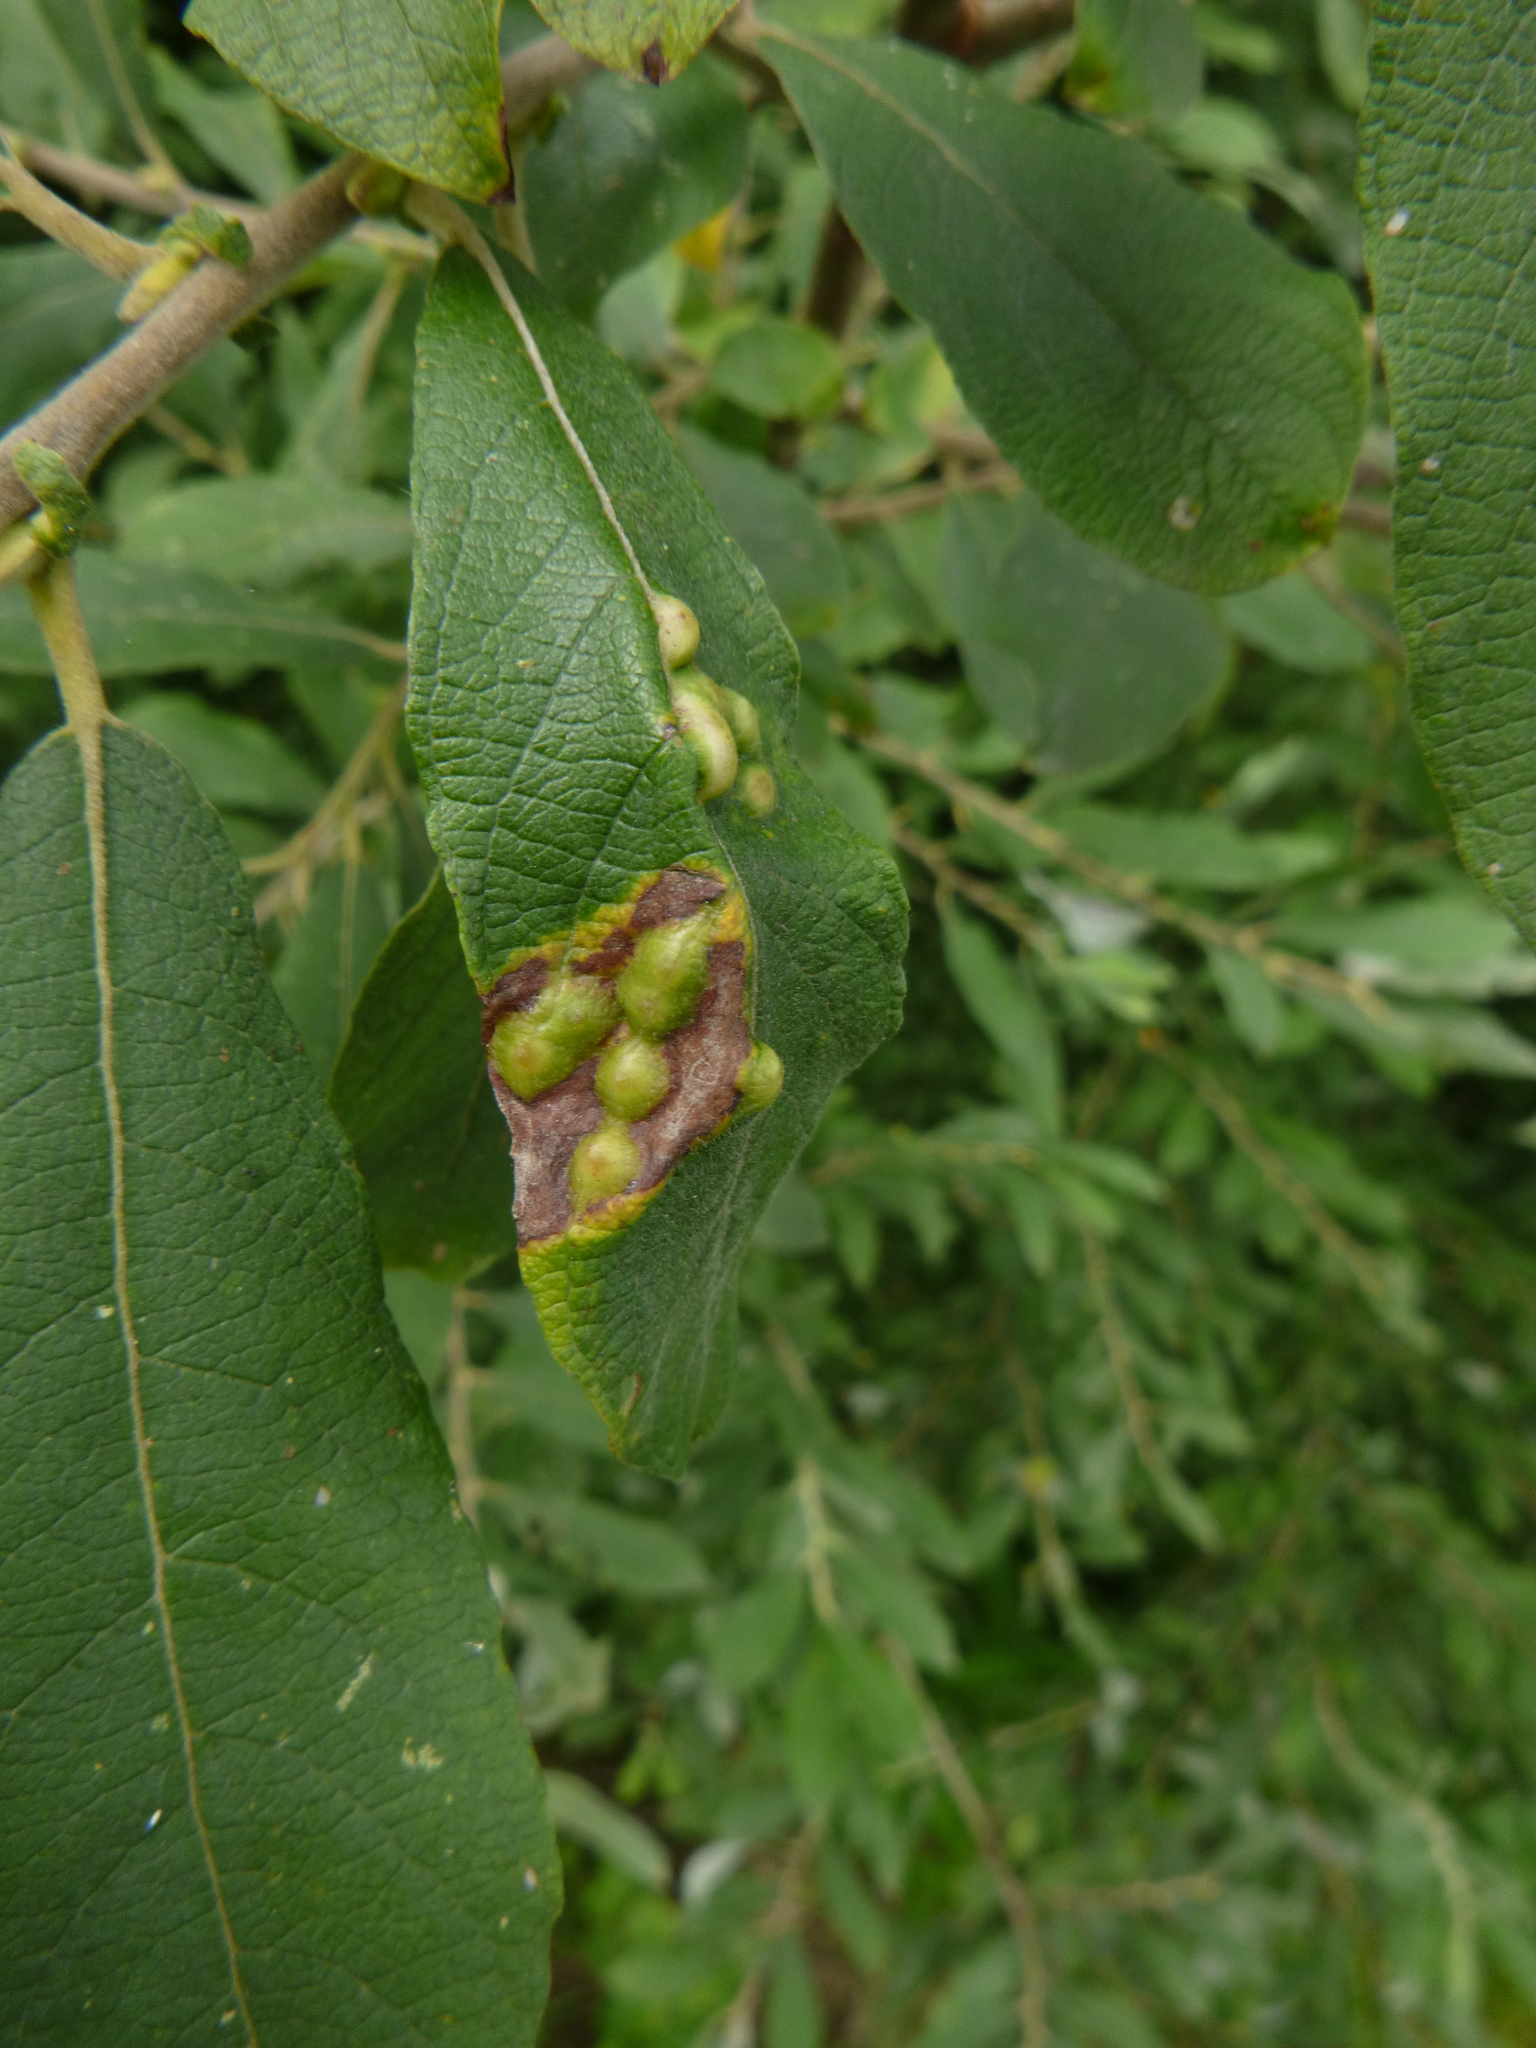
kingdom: Animalia
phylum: Arthropoda
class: Insecta
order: Diptera
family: Cecidomyiidae
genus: Iteomyia
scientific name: Iteomyia capreae
